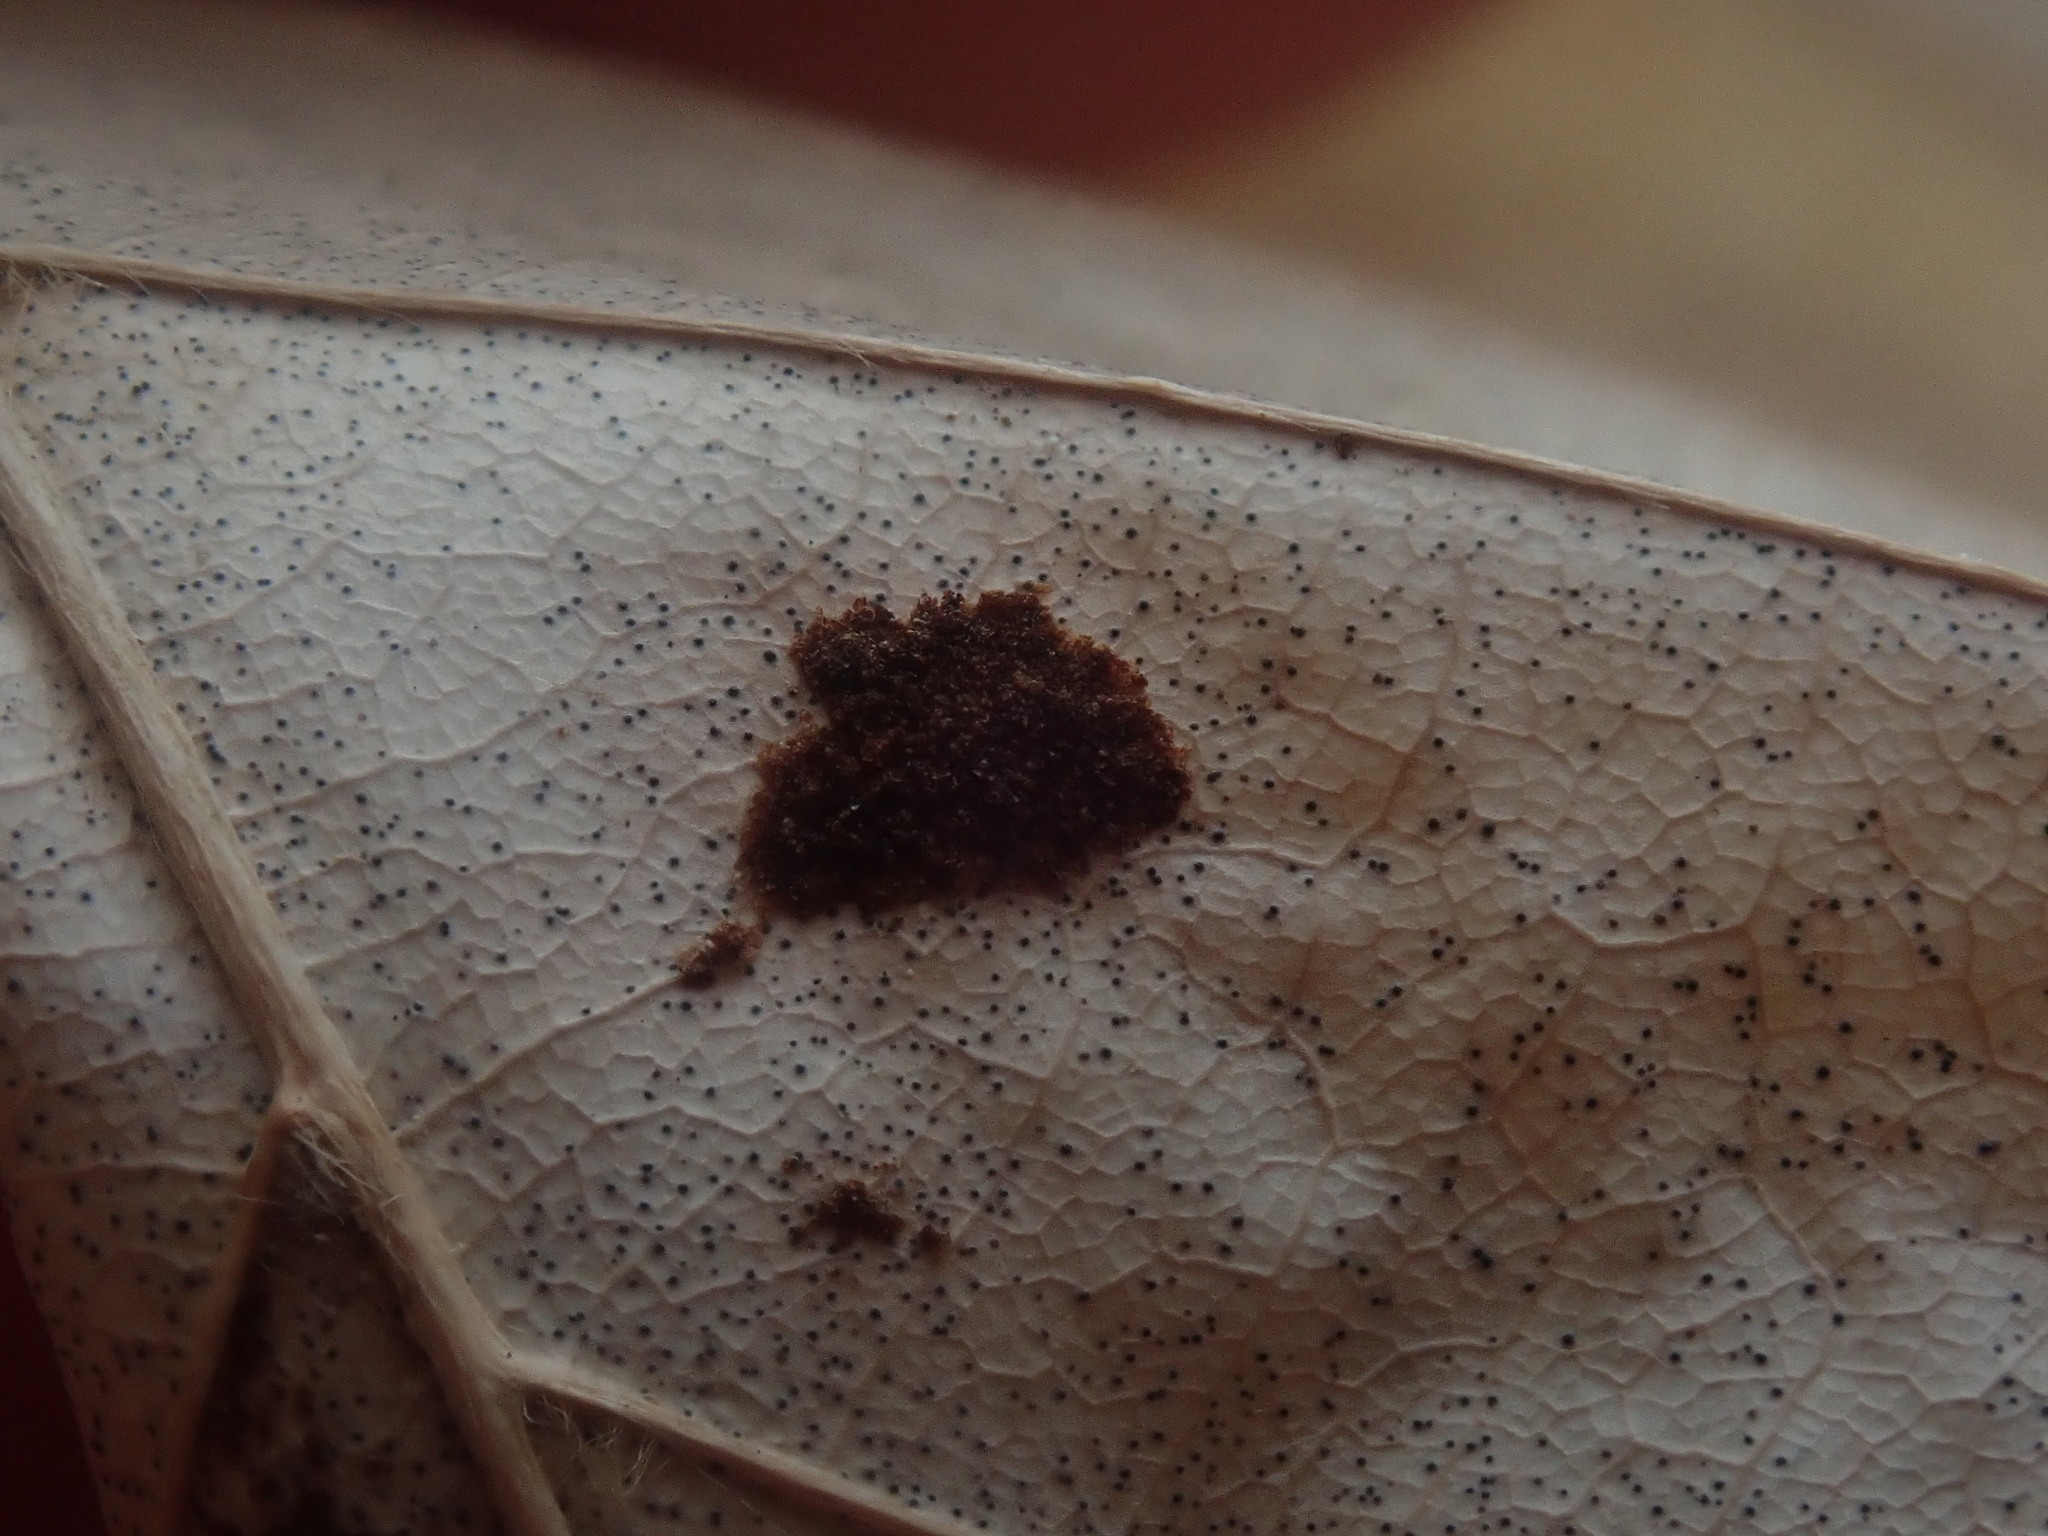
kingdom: Animalia
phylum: Arthropoda
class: Arachnida
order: Trombidiformes
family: Eriophyidae
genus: Acalitus
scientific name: Acalitus
